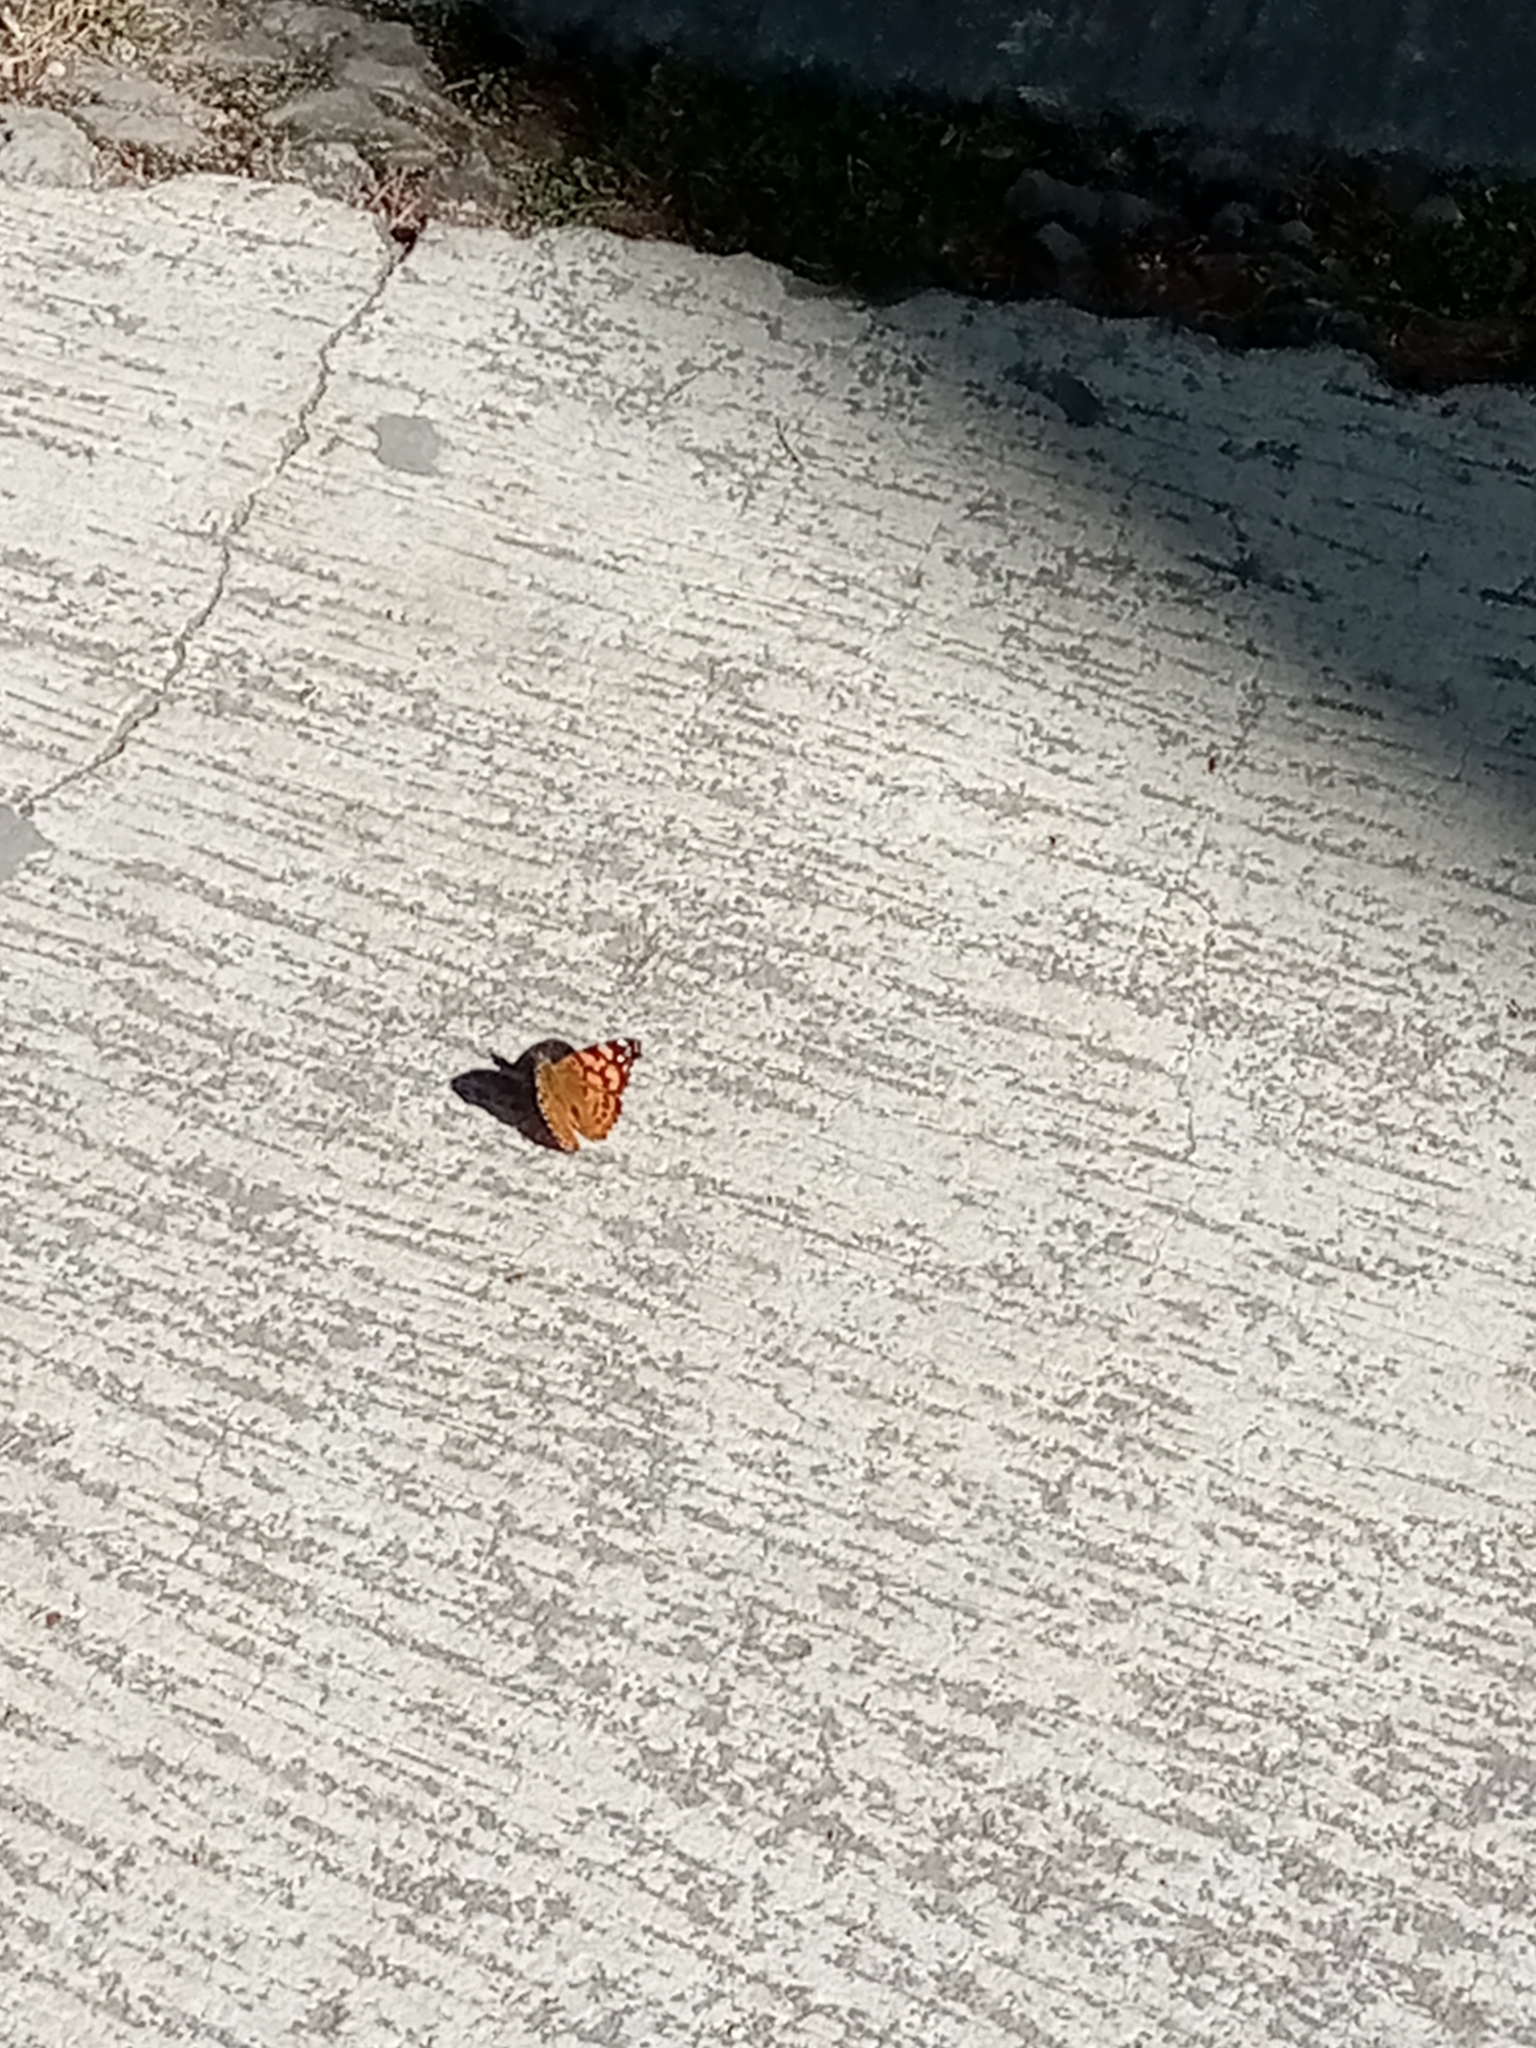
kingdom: Animalia
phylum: Arthropoda
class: Insecta
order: Lepidoptera
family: Nymphalidae
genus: Vanessa
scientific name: Vanessa annabella
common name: West coast lady
